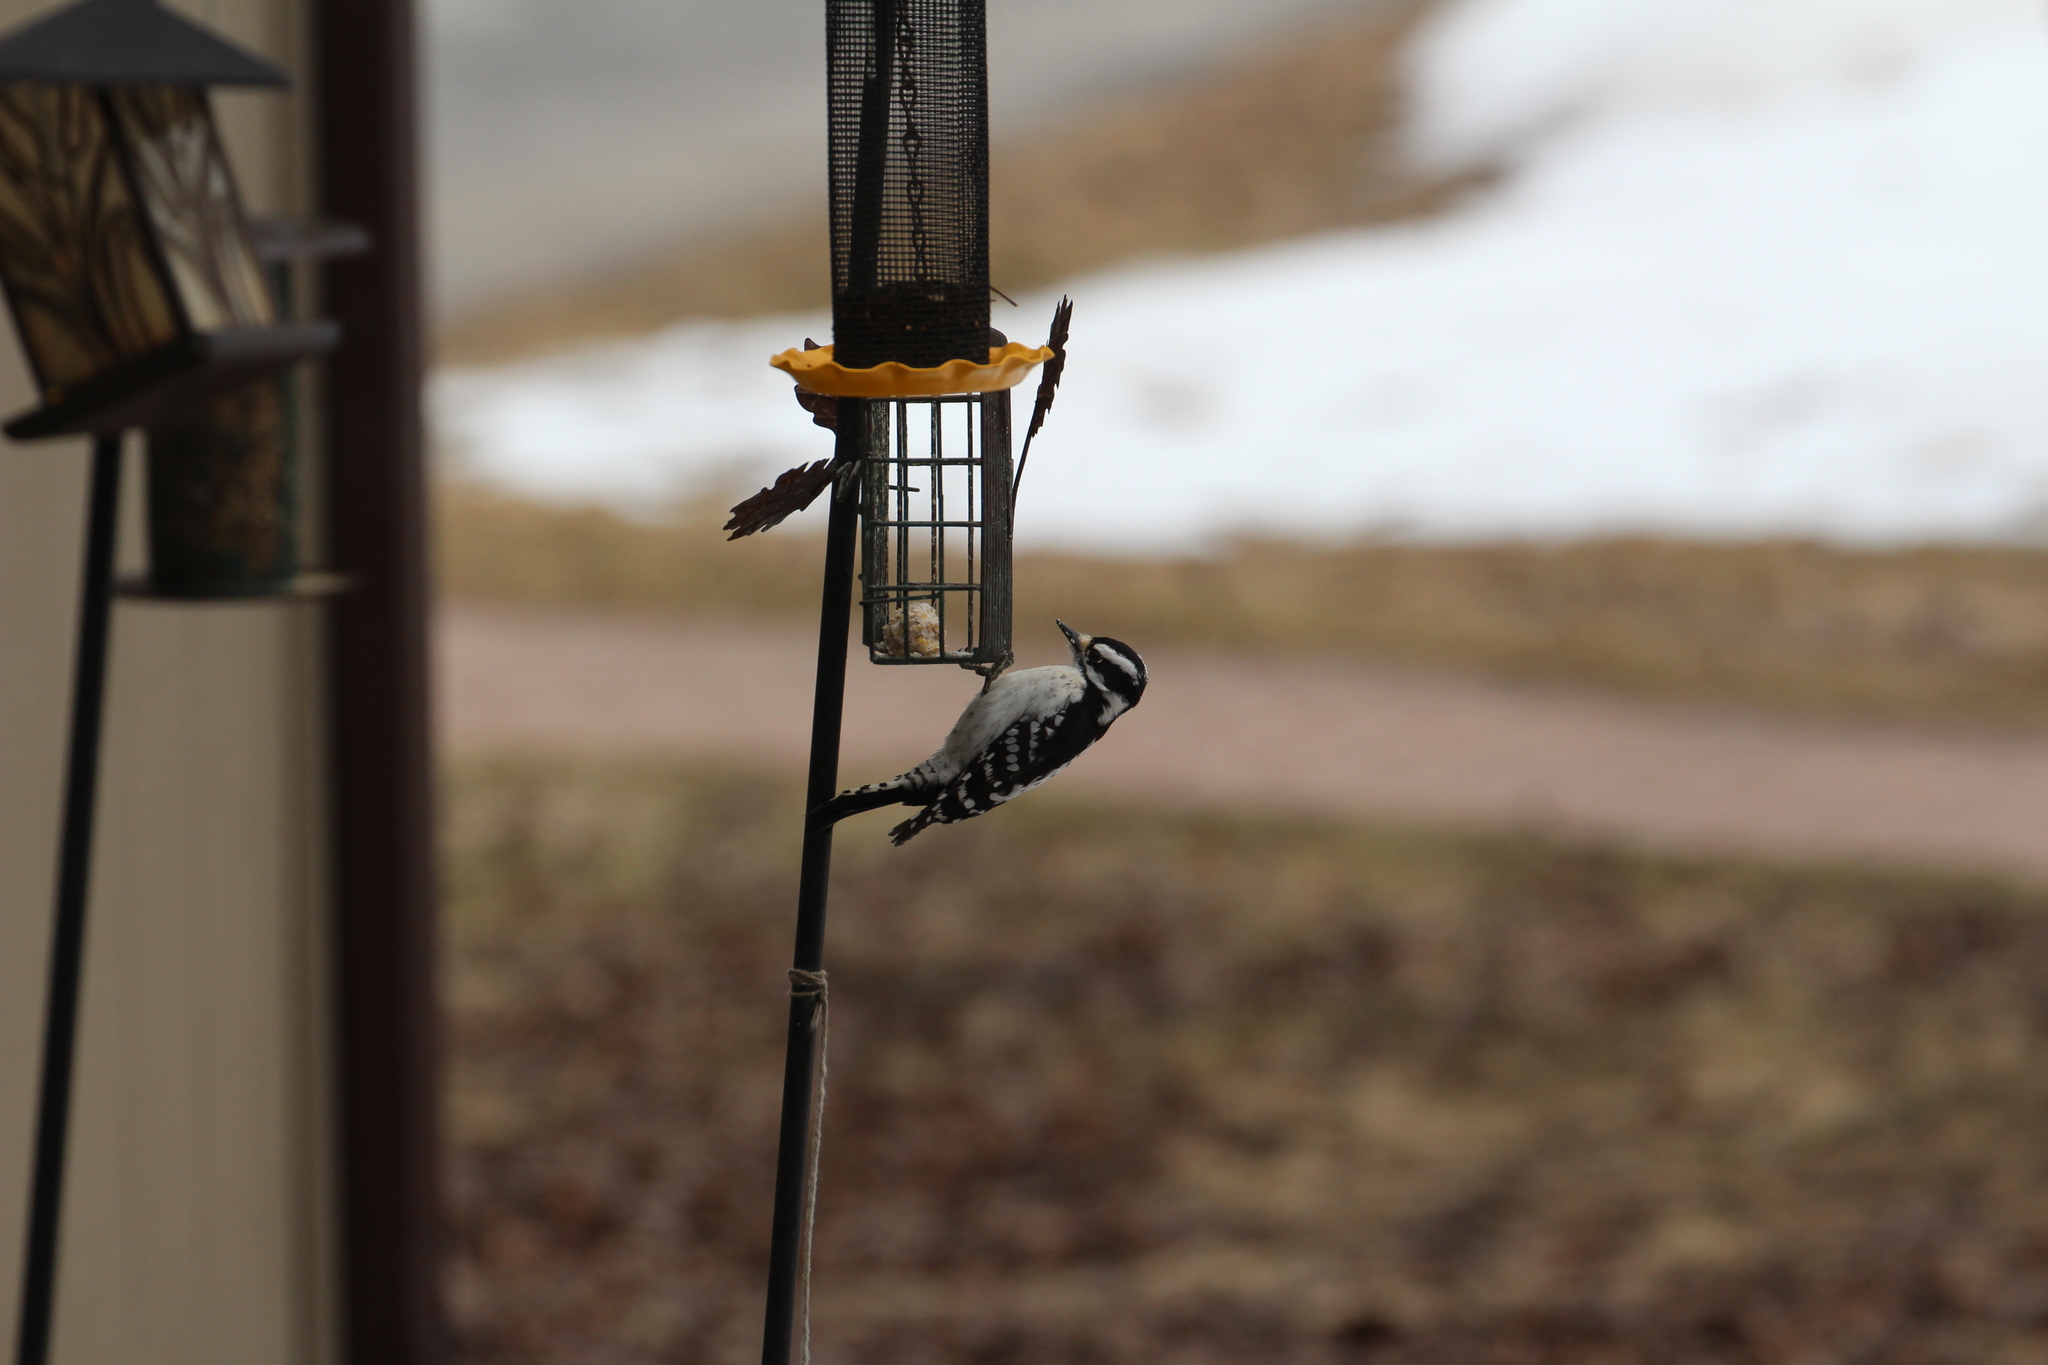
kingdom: Animalia
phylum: Chordata
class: Aves
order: Piciformes
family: Picidae
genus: Dryobates
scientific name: Dryobates pubescens
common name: Downy woodpecker
